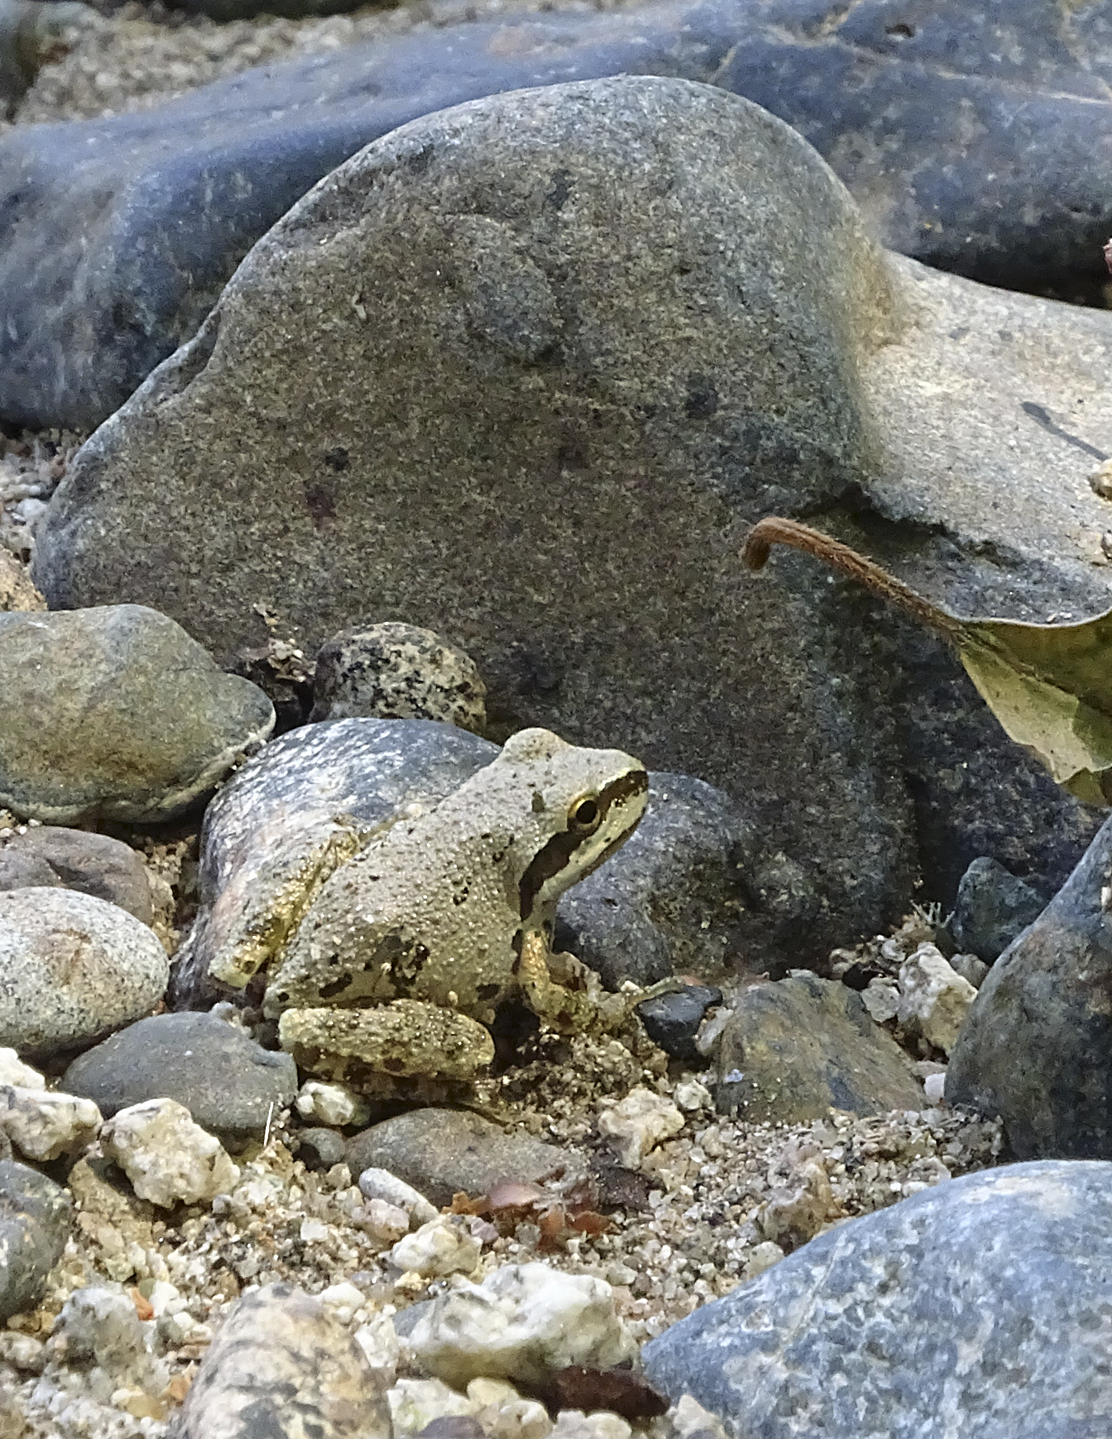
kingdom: Animalia
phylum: Chordata
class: Amphibia
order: Anura
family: Hylidae
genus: Pseudacris
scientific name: Pseudacris regilla
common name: Pacific chorus frog
